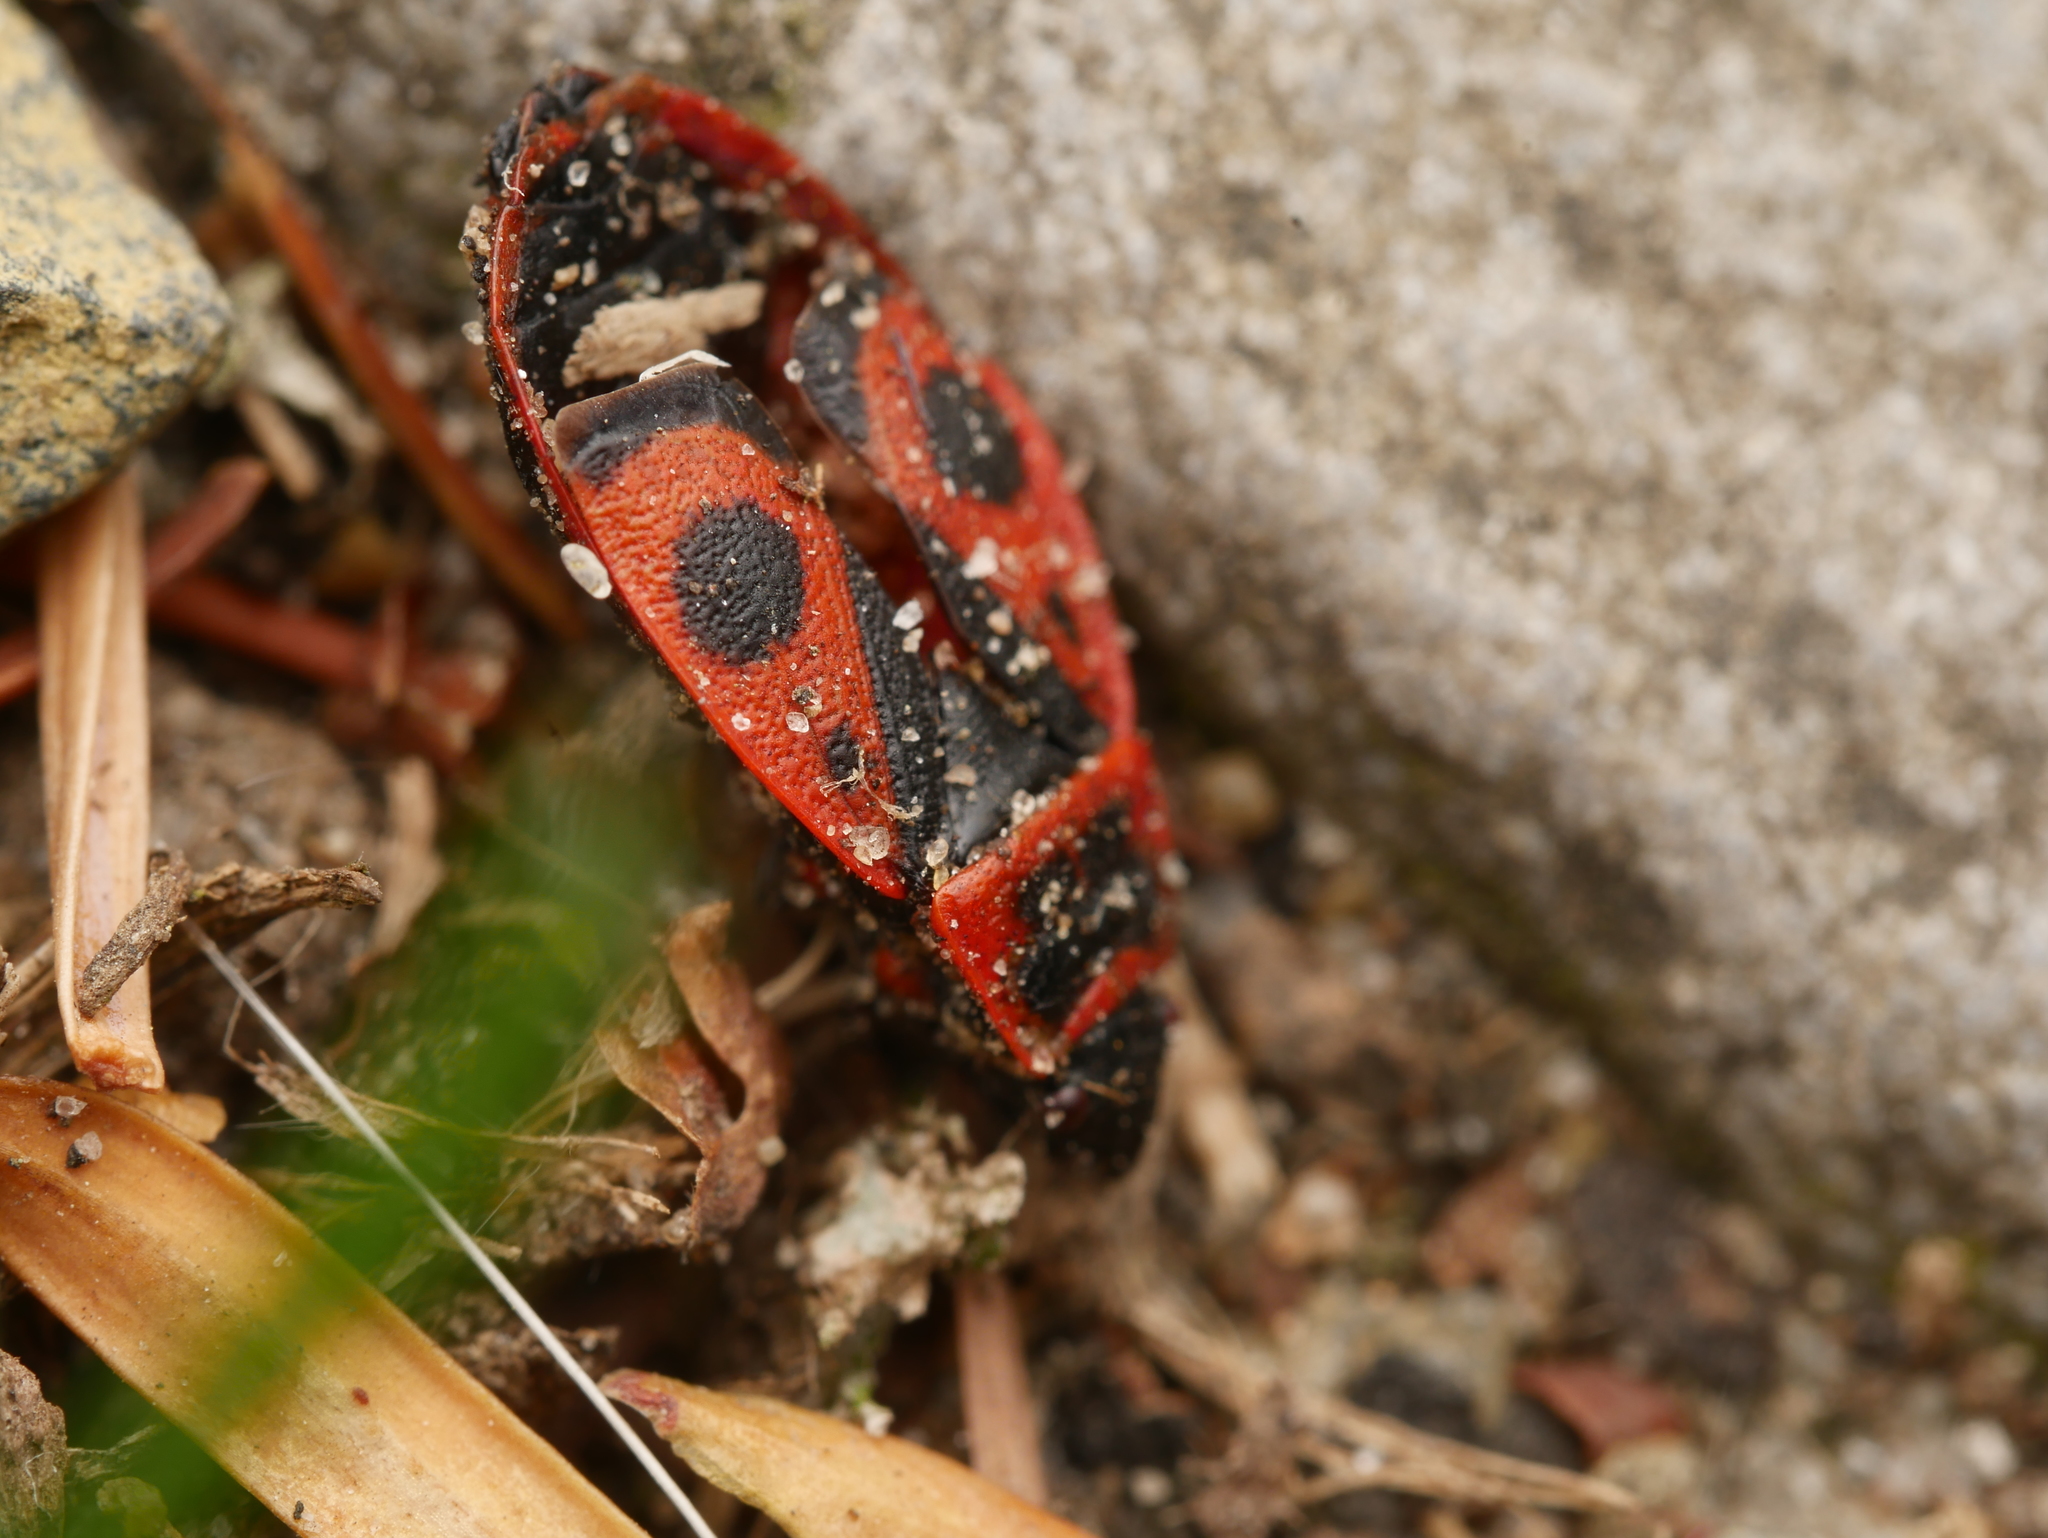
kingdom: Animalia
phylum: Arthropoda
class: Insecta
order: Hemiptera
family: Pyrrhocoridae
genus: Pyrrhocoris
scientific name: Pyrrhocoris apterus
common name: Firebug
